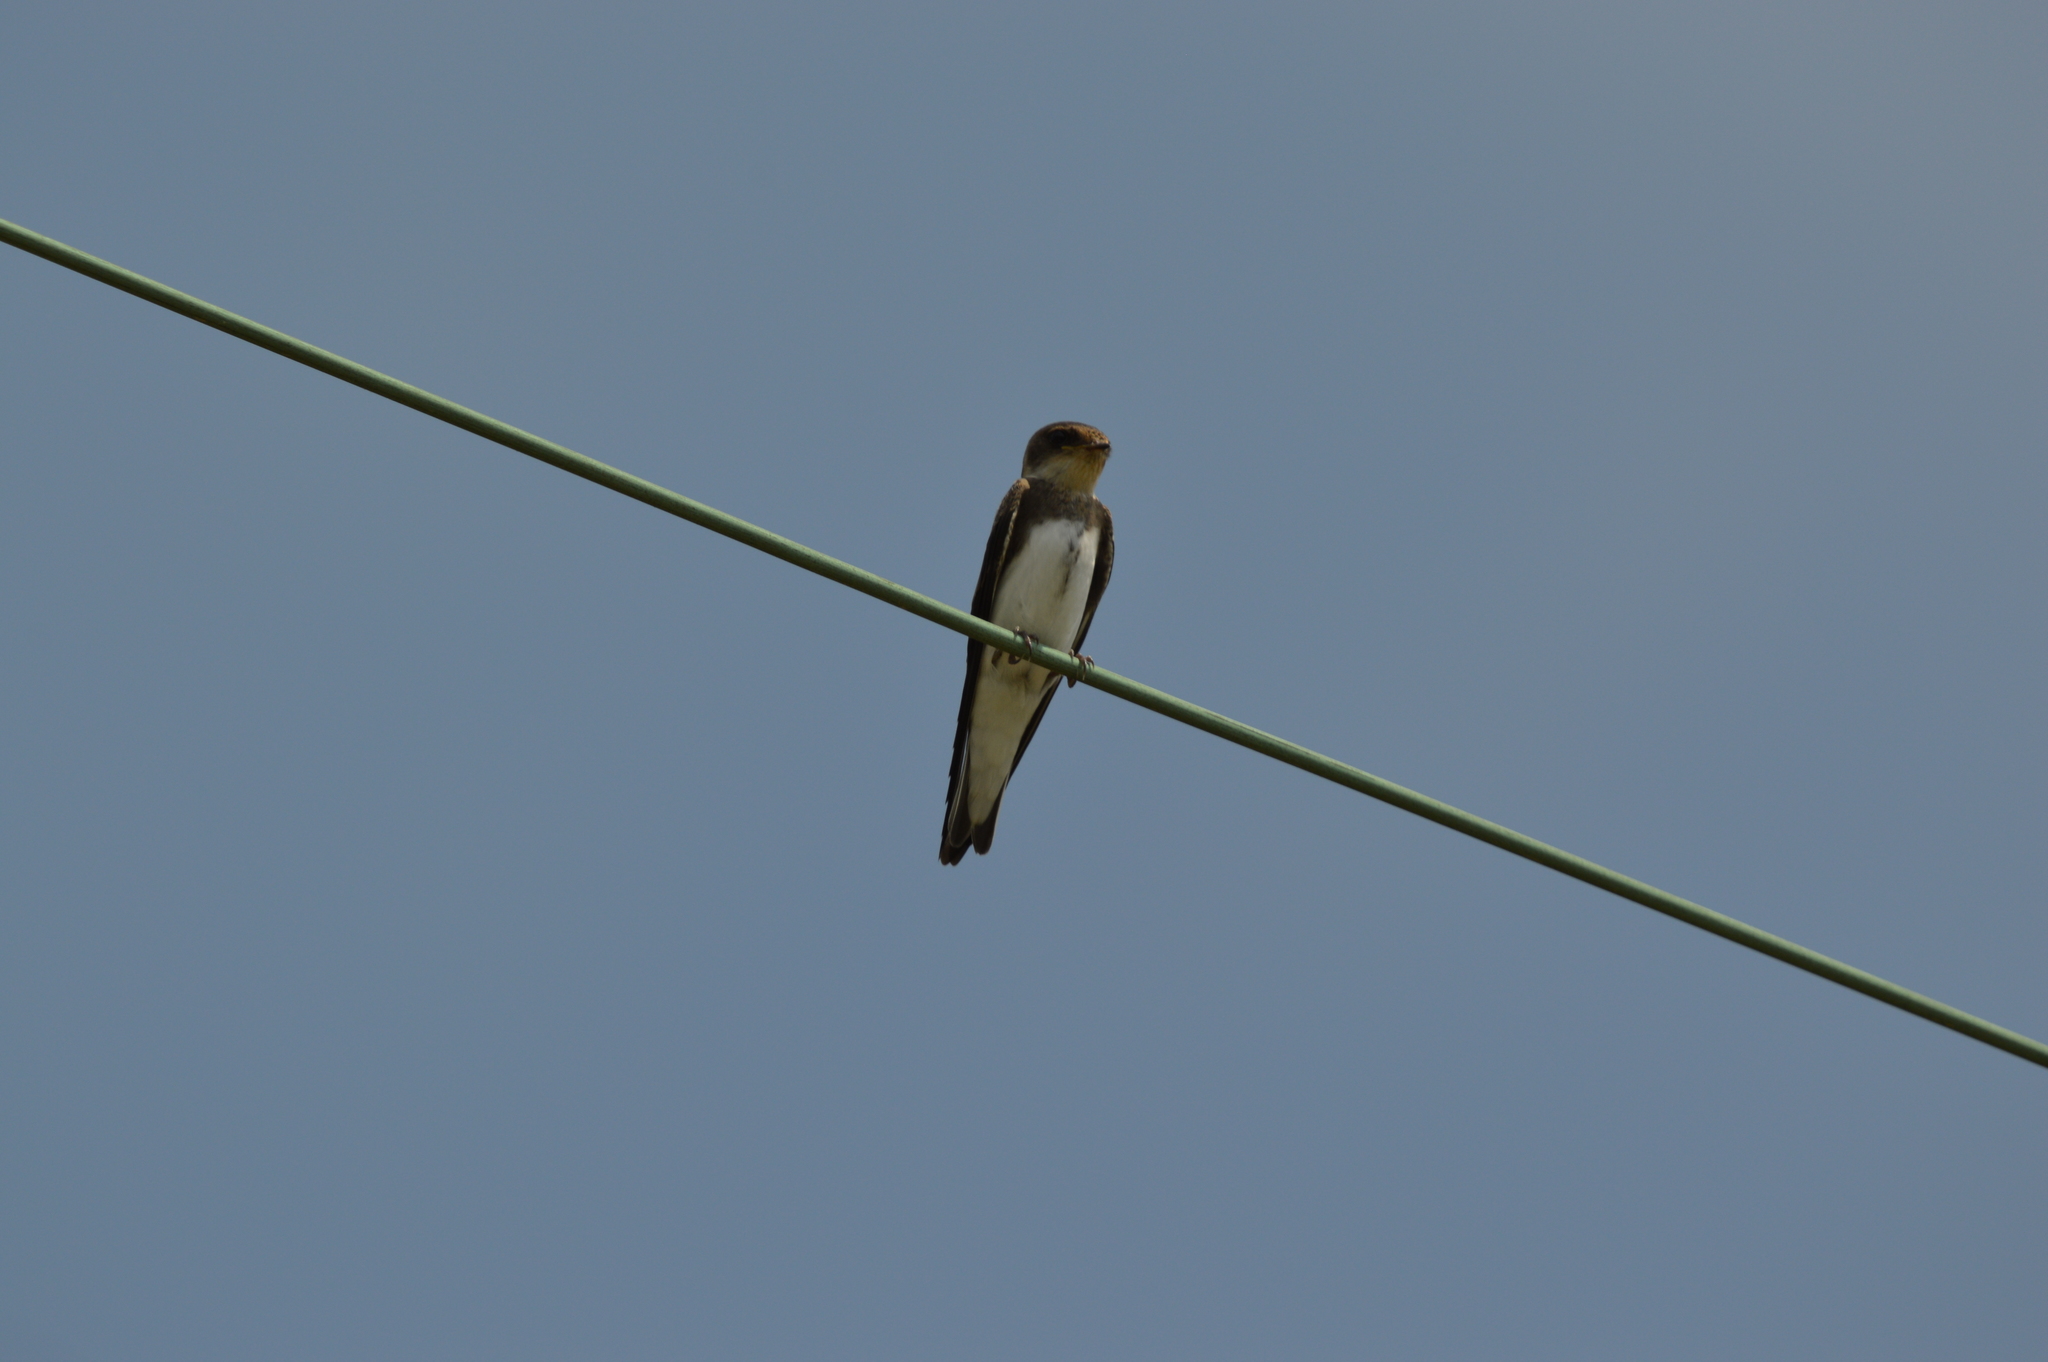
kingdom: Animalia
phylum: Chordata
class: Aves
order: Passeriformes
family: Hirundinidae
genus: Riparia
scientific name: Riparia riparia
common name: Sand martin
